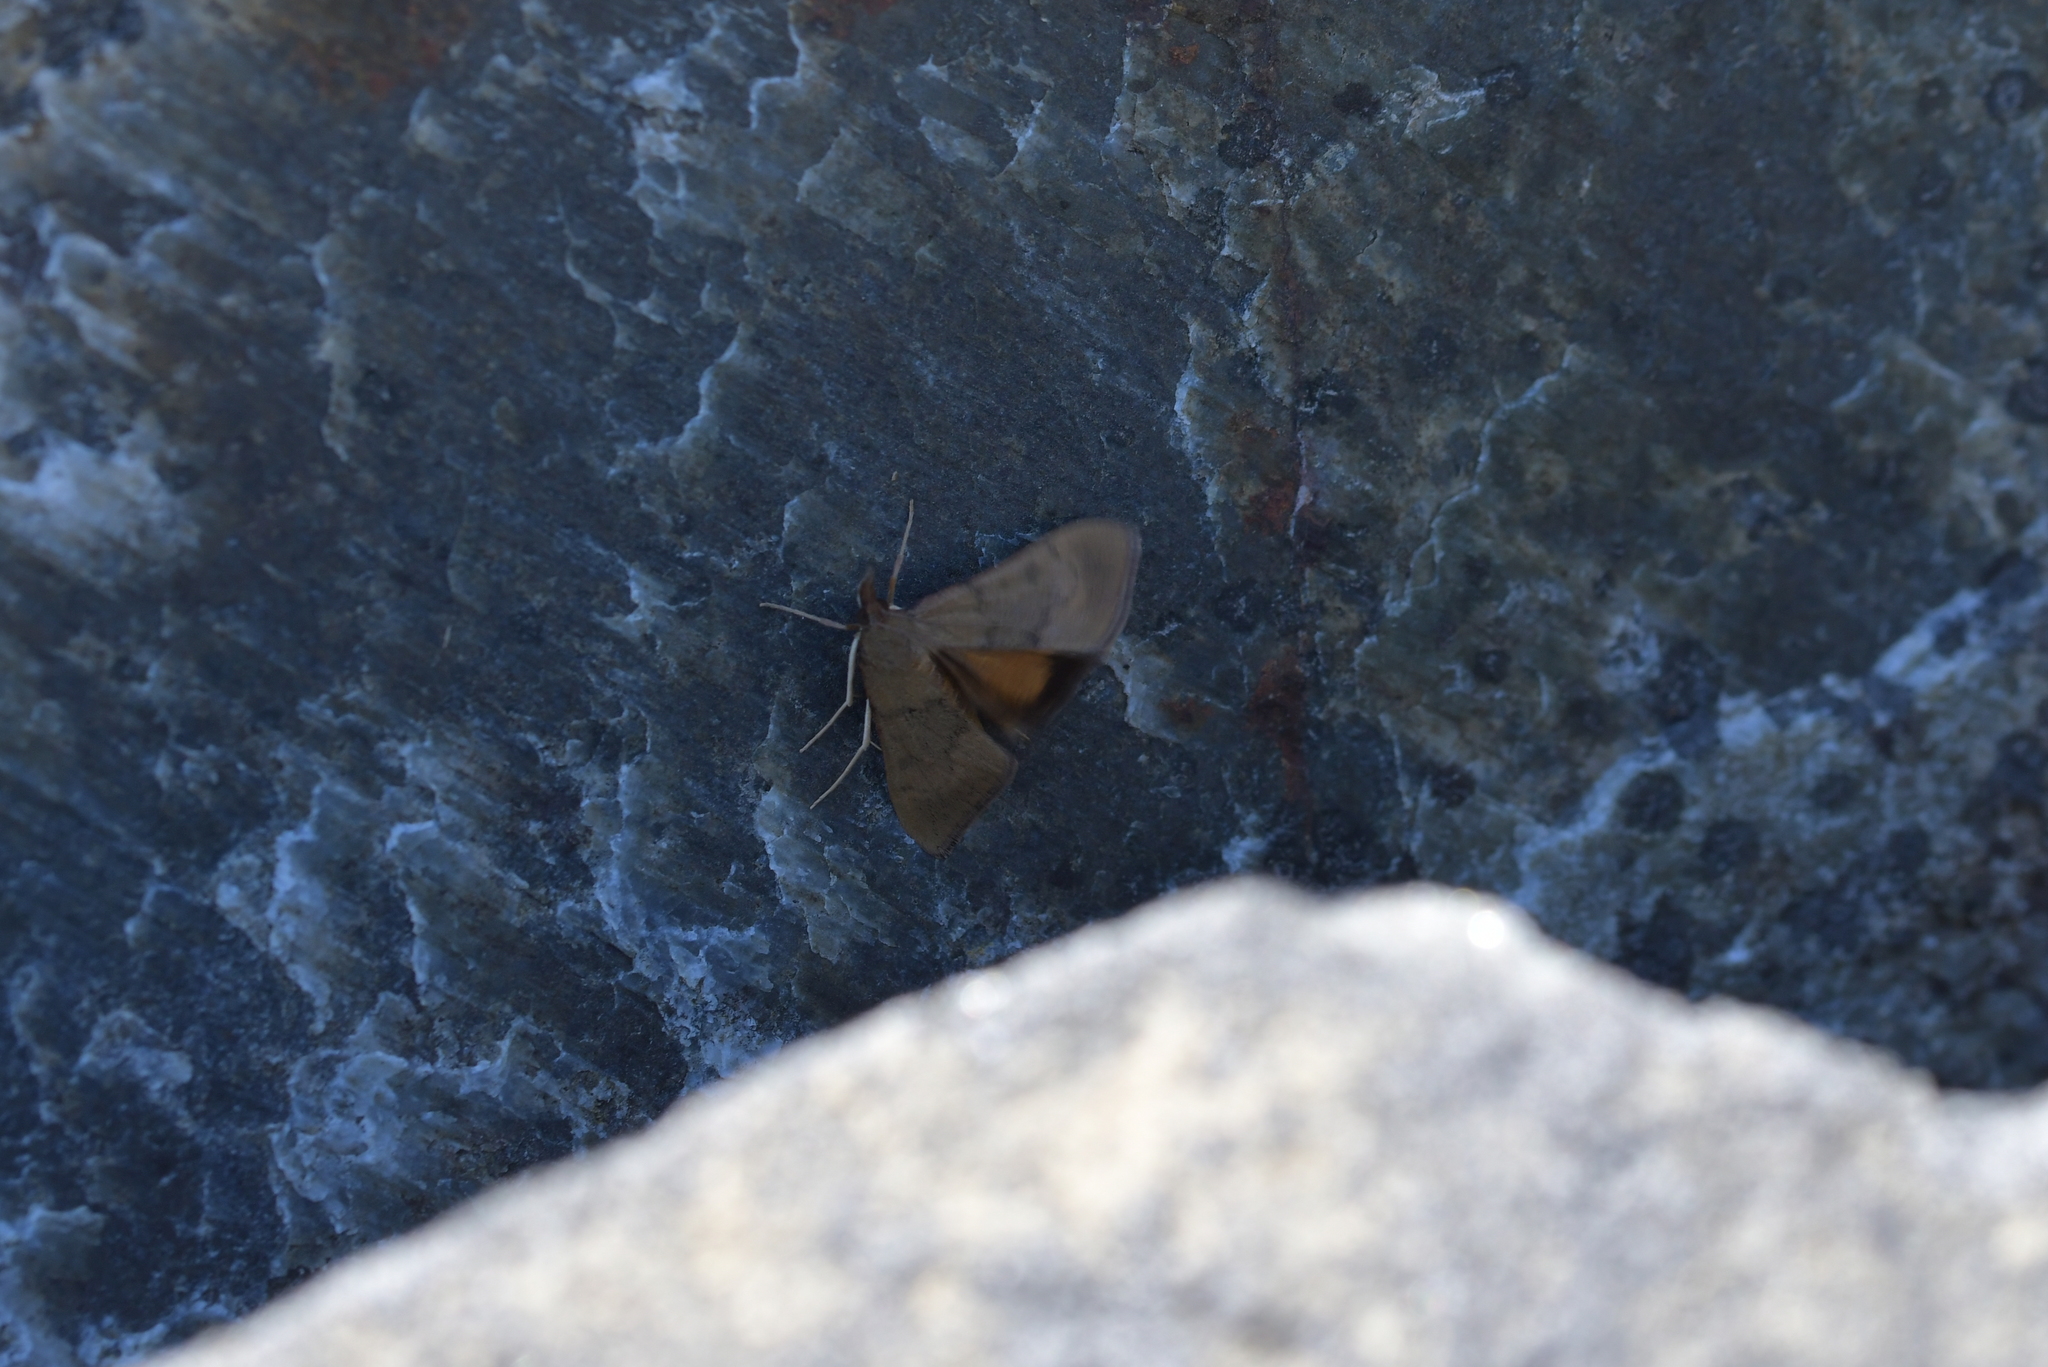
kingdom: Animalia
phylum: Arthropoda
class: Insecta
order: Lepidoptera
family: Crambidae
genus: Uresiphita
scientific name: Uresiphita
